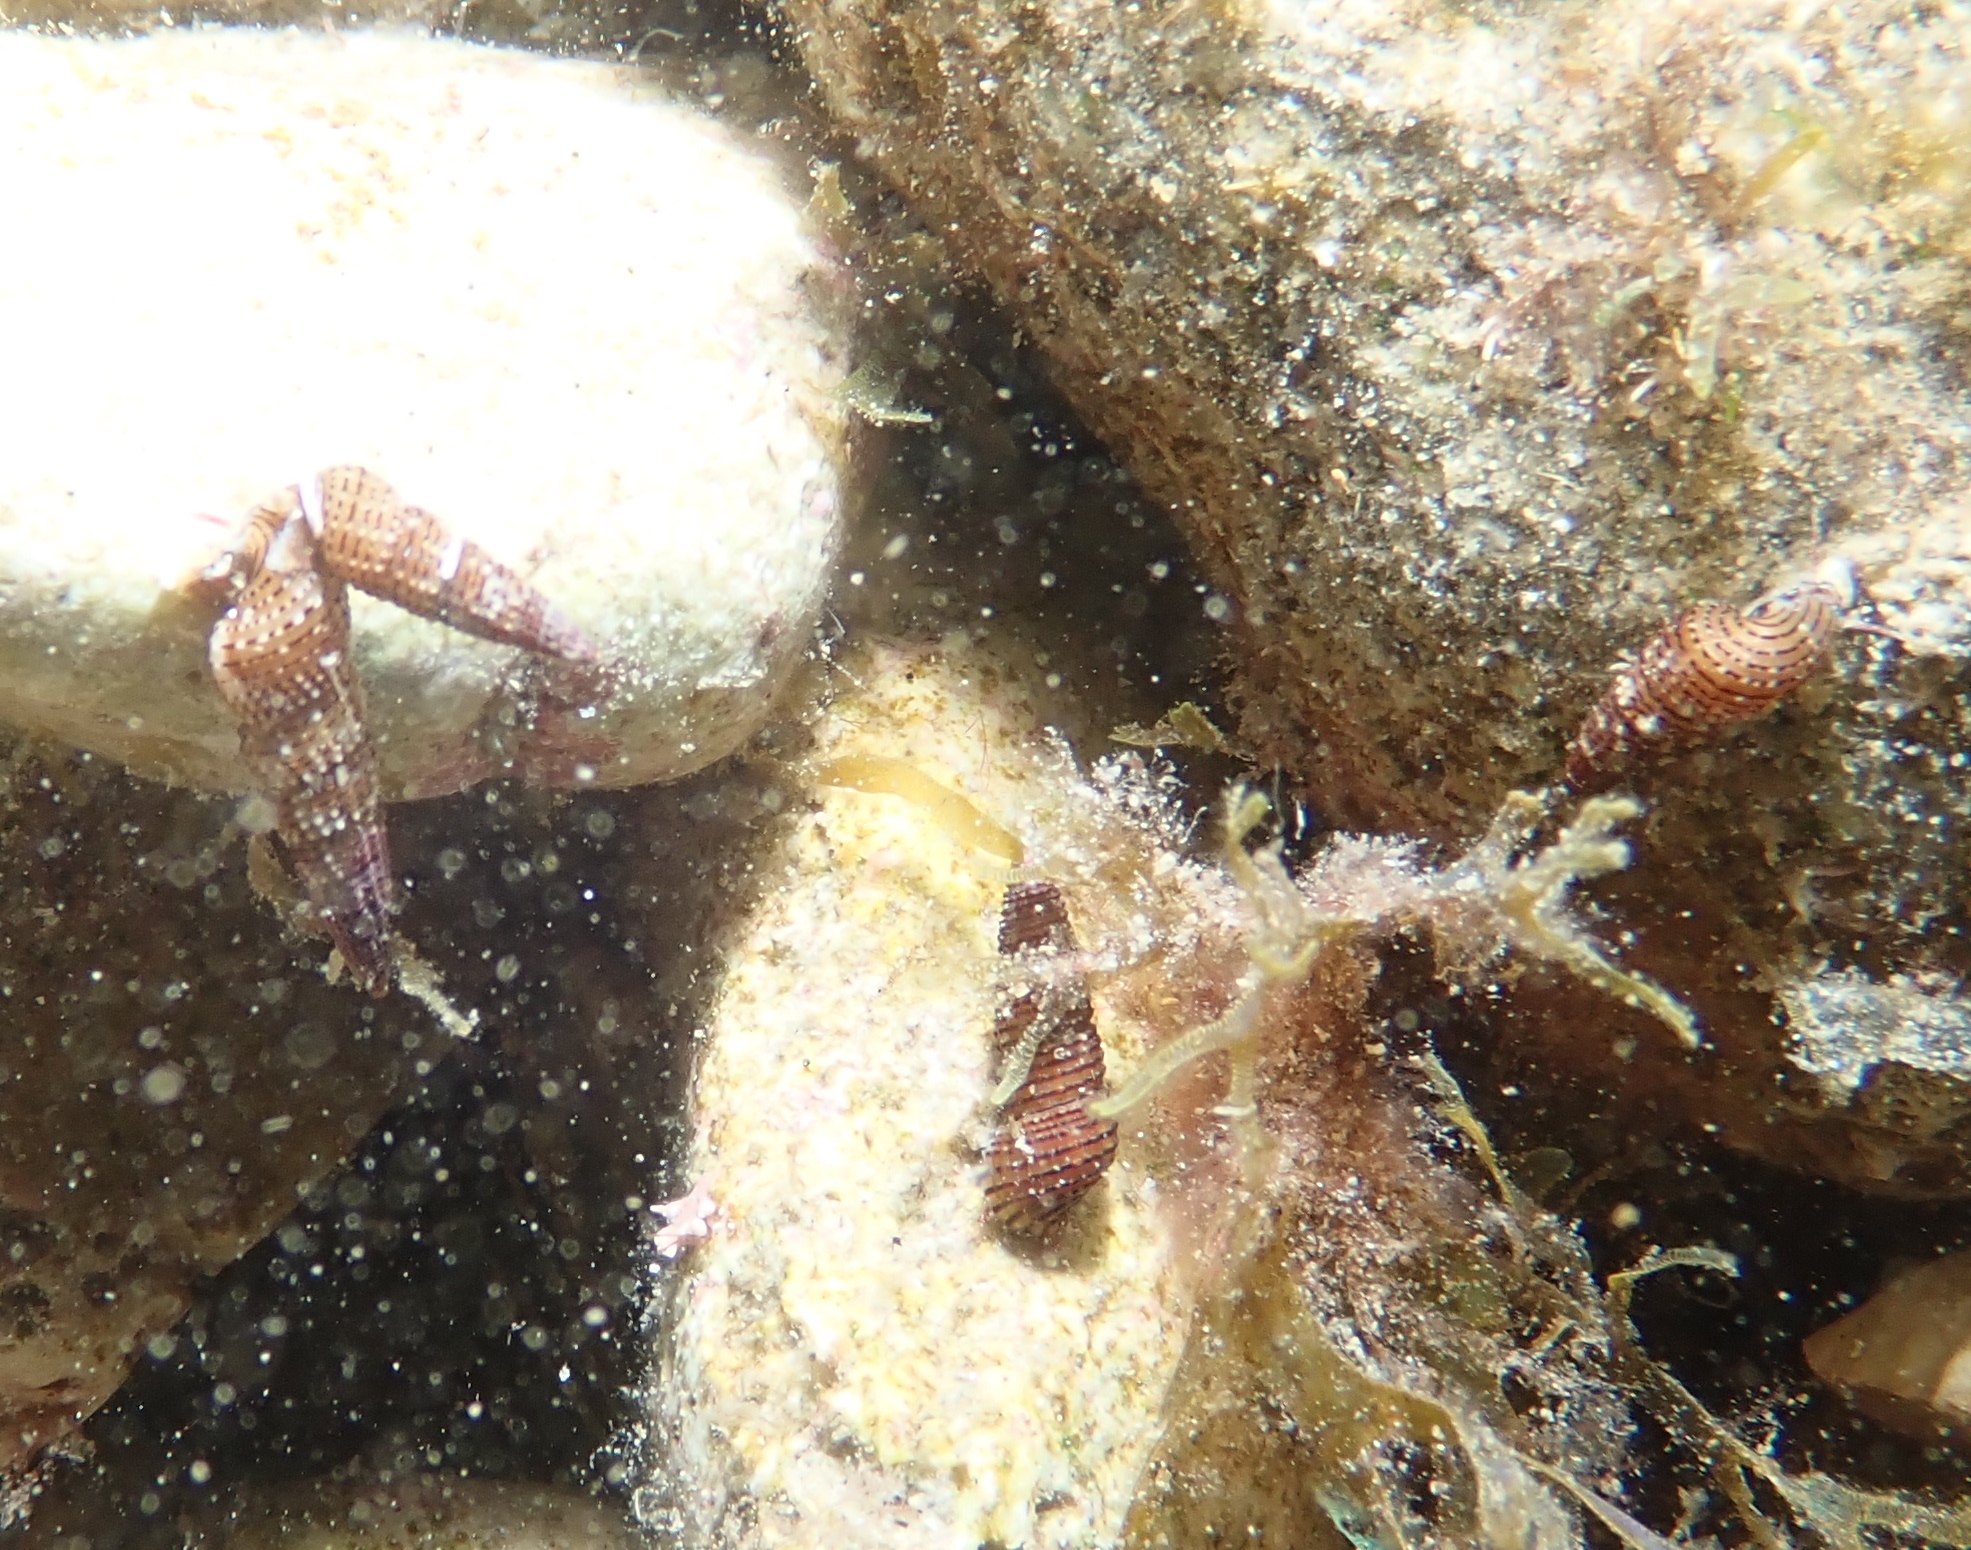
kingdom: Animalia
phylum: Mollusca
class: Gastropoda
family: Cerithiidae
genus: Bittium
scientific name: Bittium latreillii
